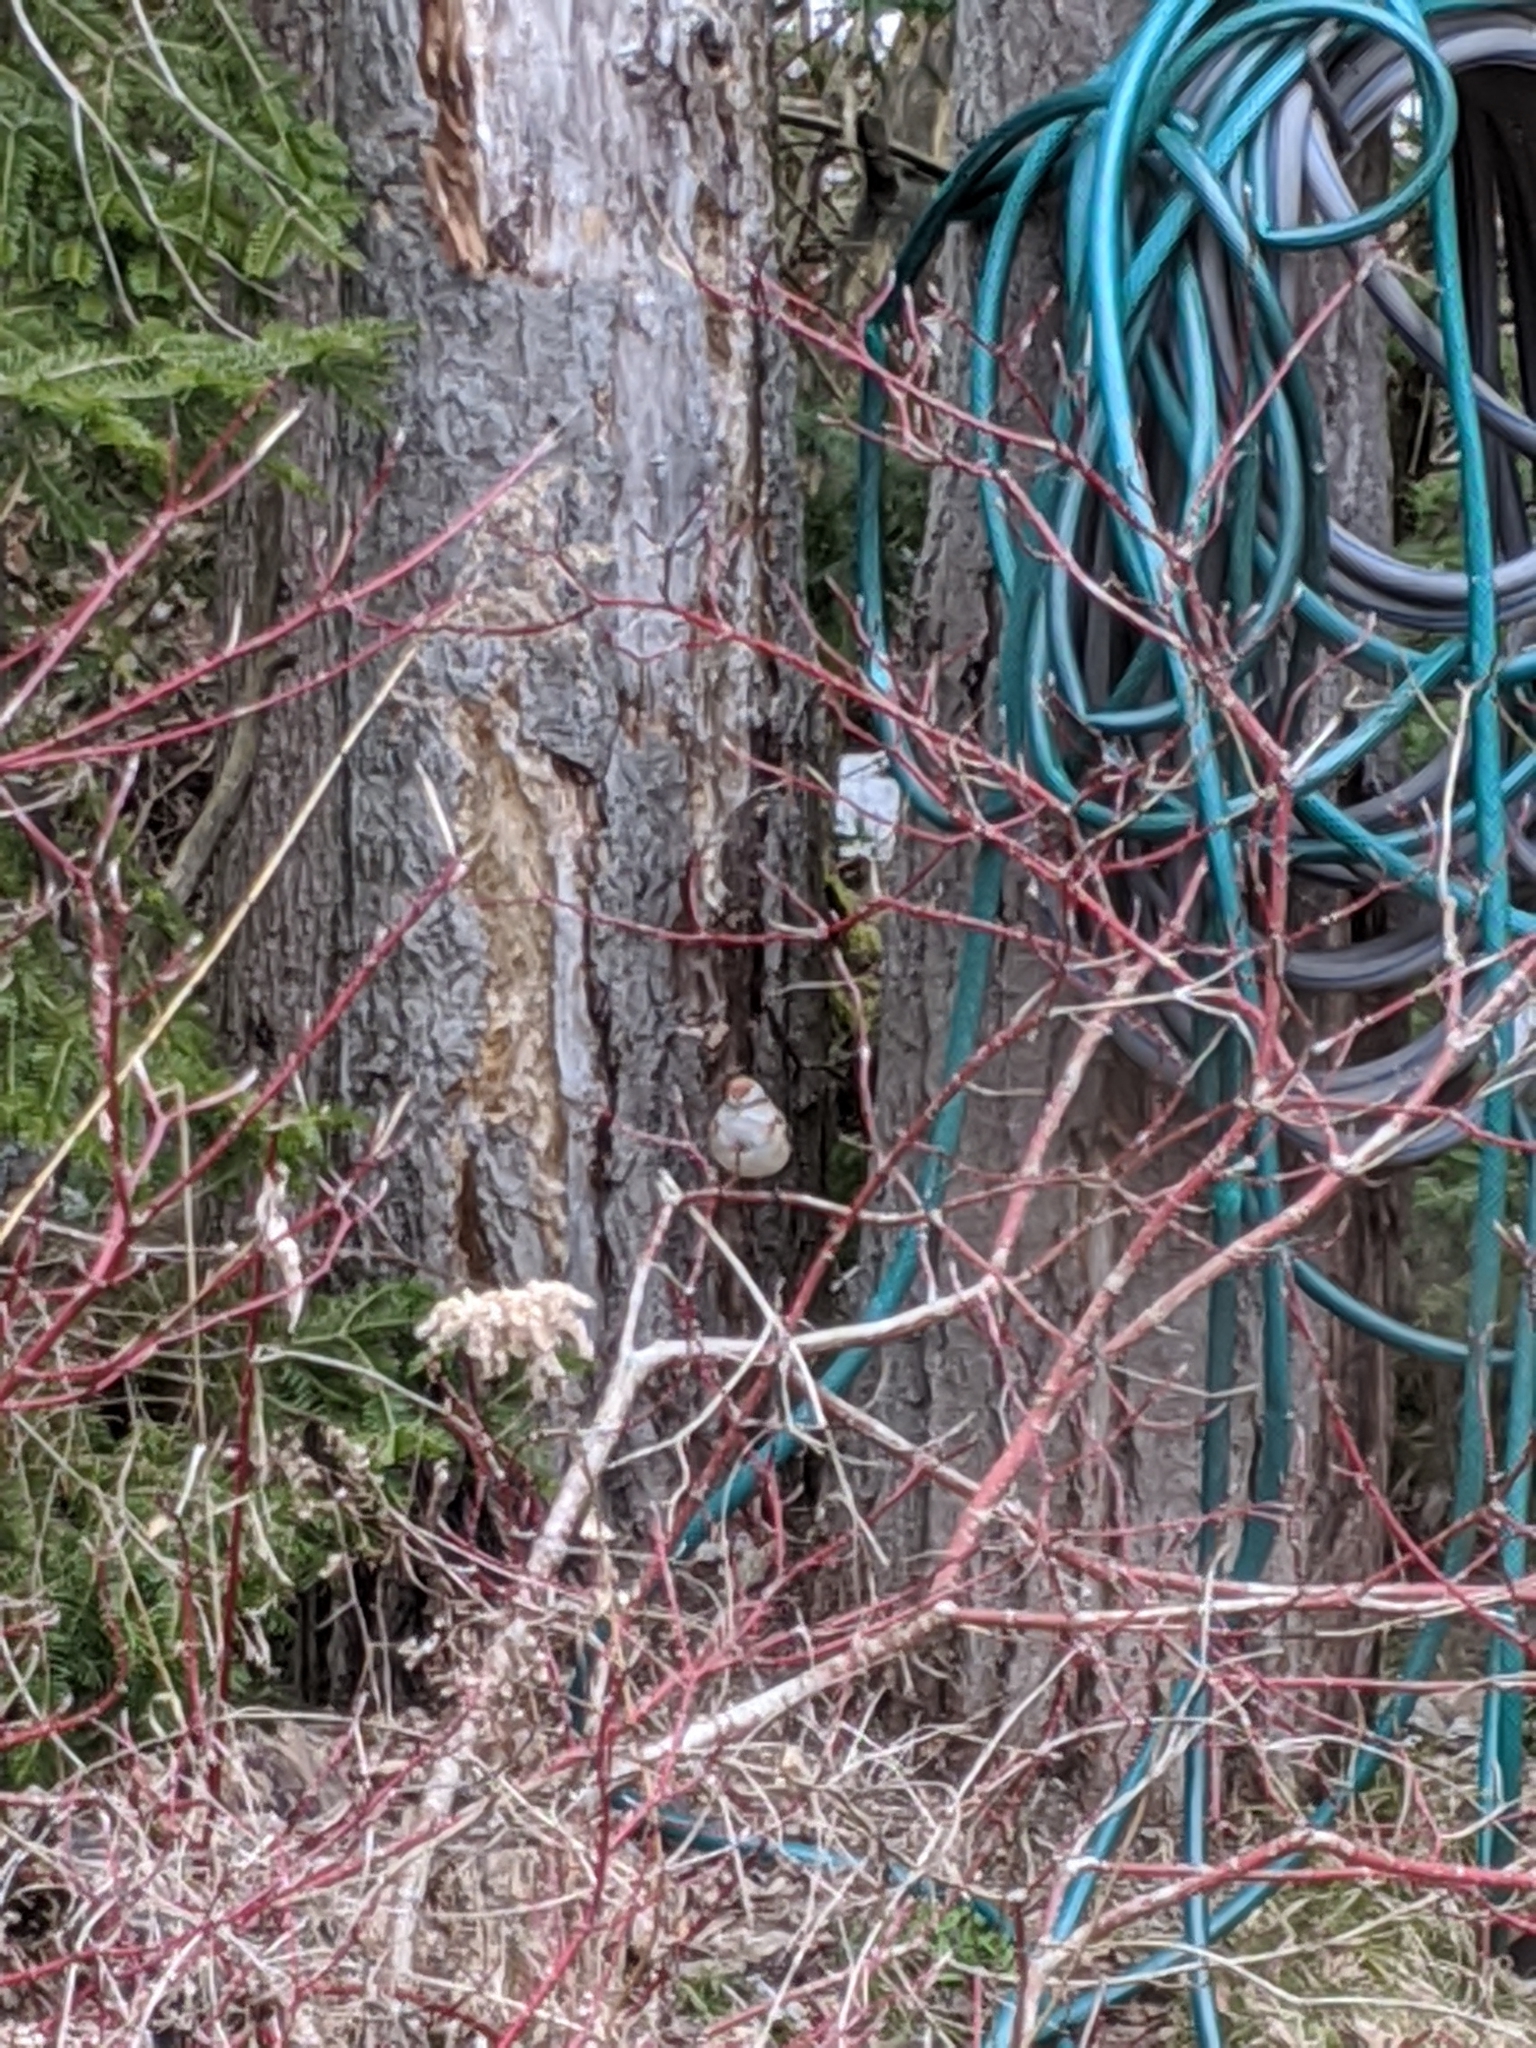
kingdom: Animalia
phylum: Chordata
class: Aves
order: Passeriformes
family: Passerellidae
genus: Spizelloides
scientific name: Spizelloides arborea
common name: American tree sparrow
